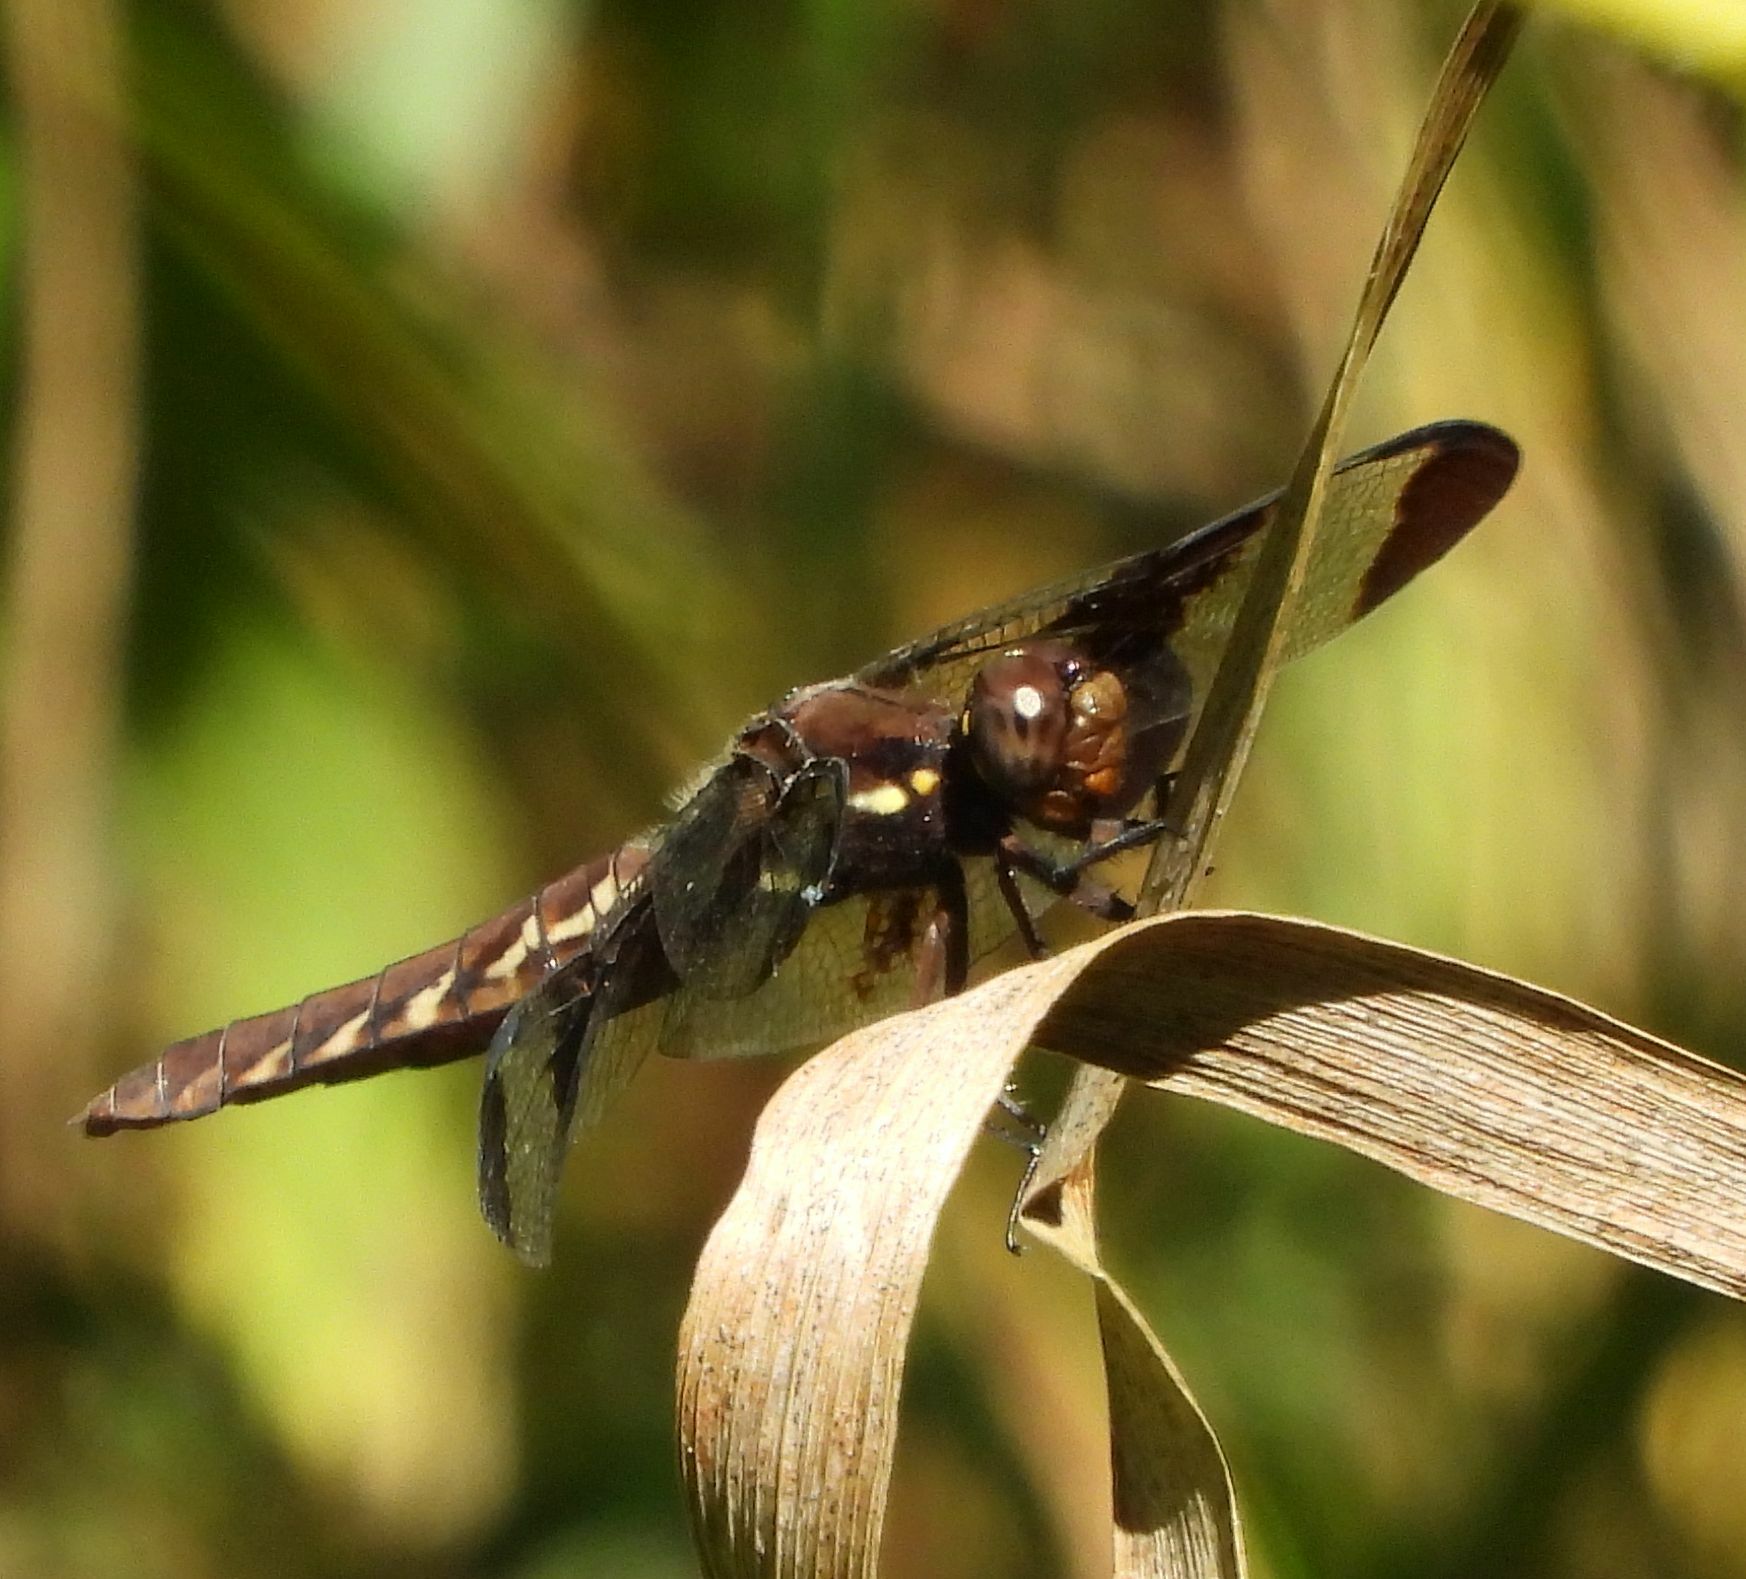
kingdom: Animalia
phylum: Arthropoda
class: Insecta
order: Odonata
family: Libellulidae
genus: Plathemis
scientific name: Plathemis lydia
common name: Common whitetail
